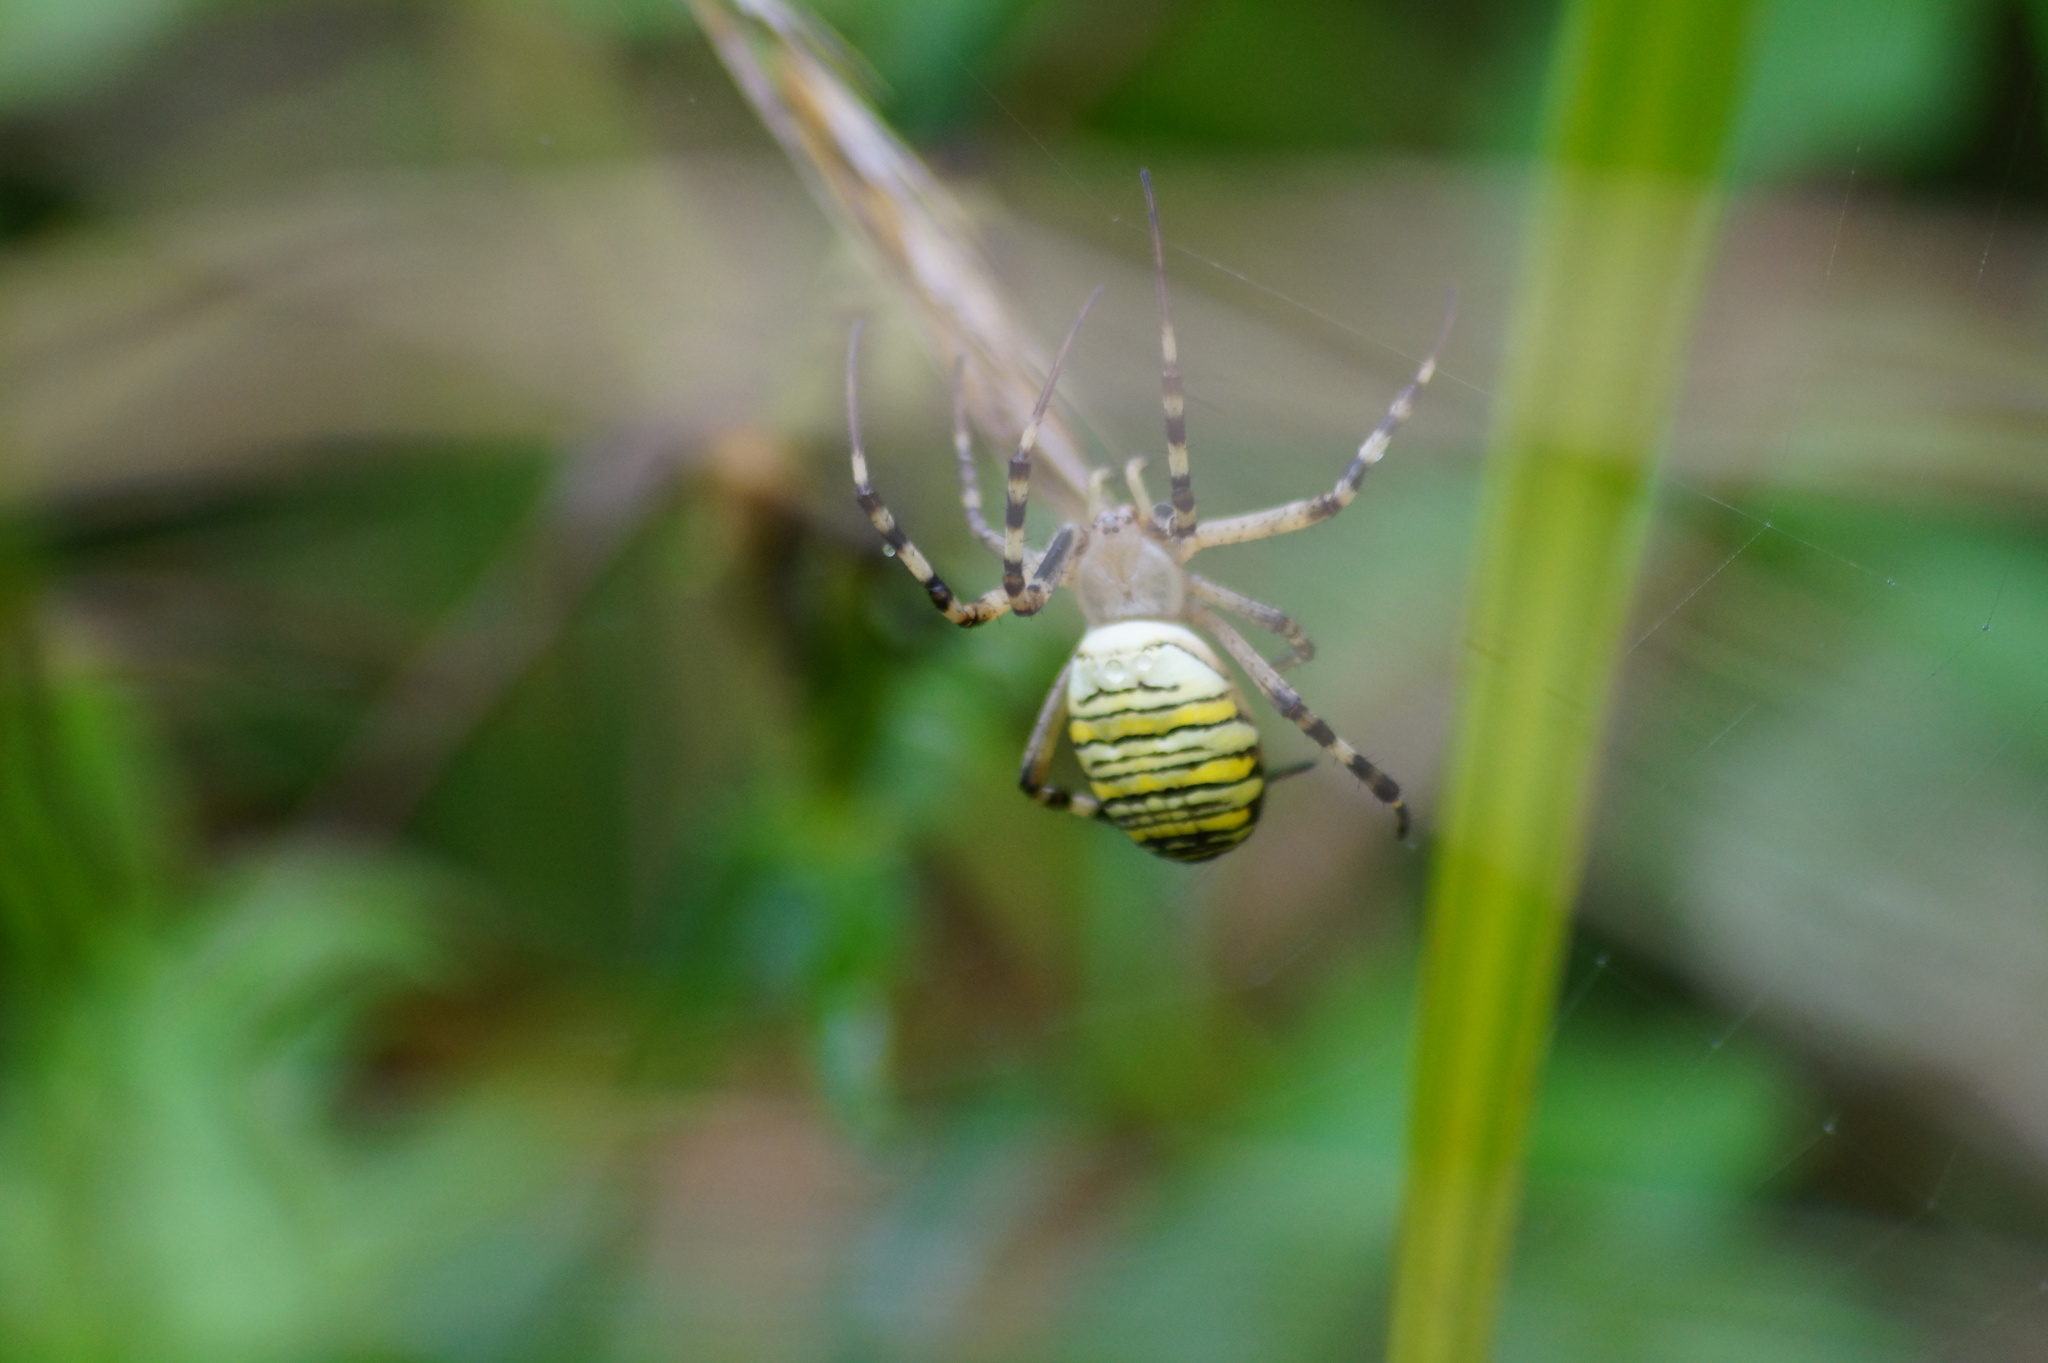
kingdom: Animalia
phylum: Arthropoda
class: Arachnida
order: Araneae
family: Araneidae
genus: Argiope
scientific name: Argiope bruennichi
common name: Wasp spider
